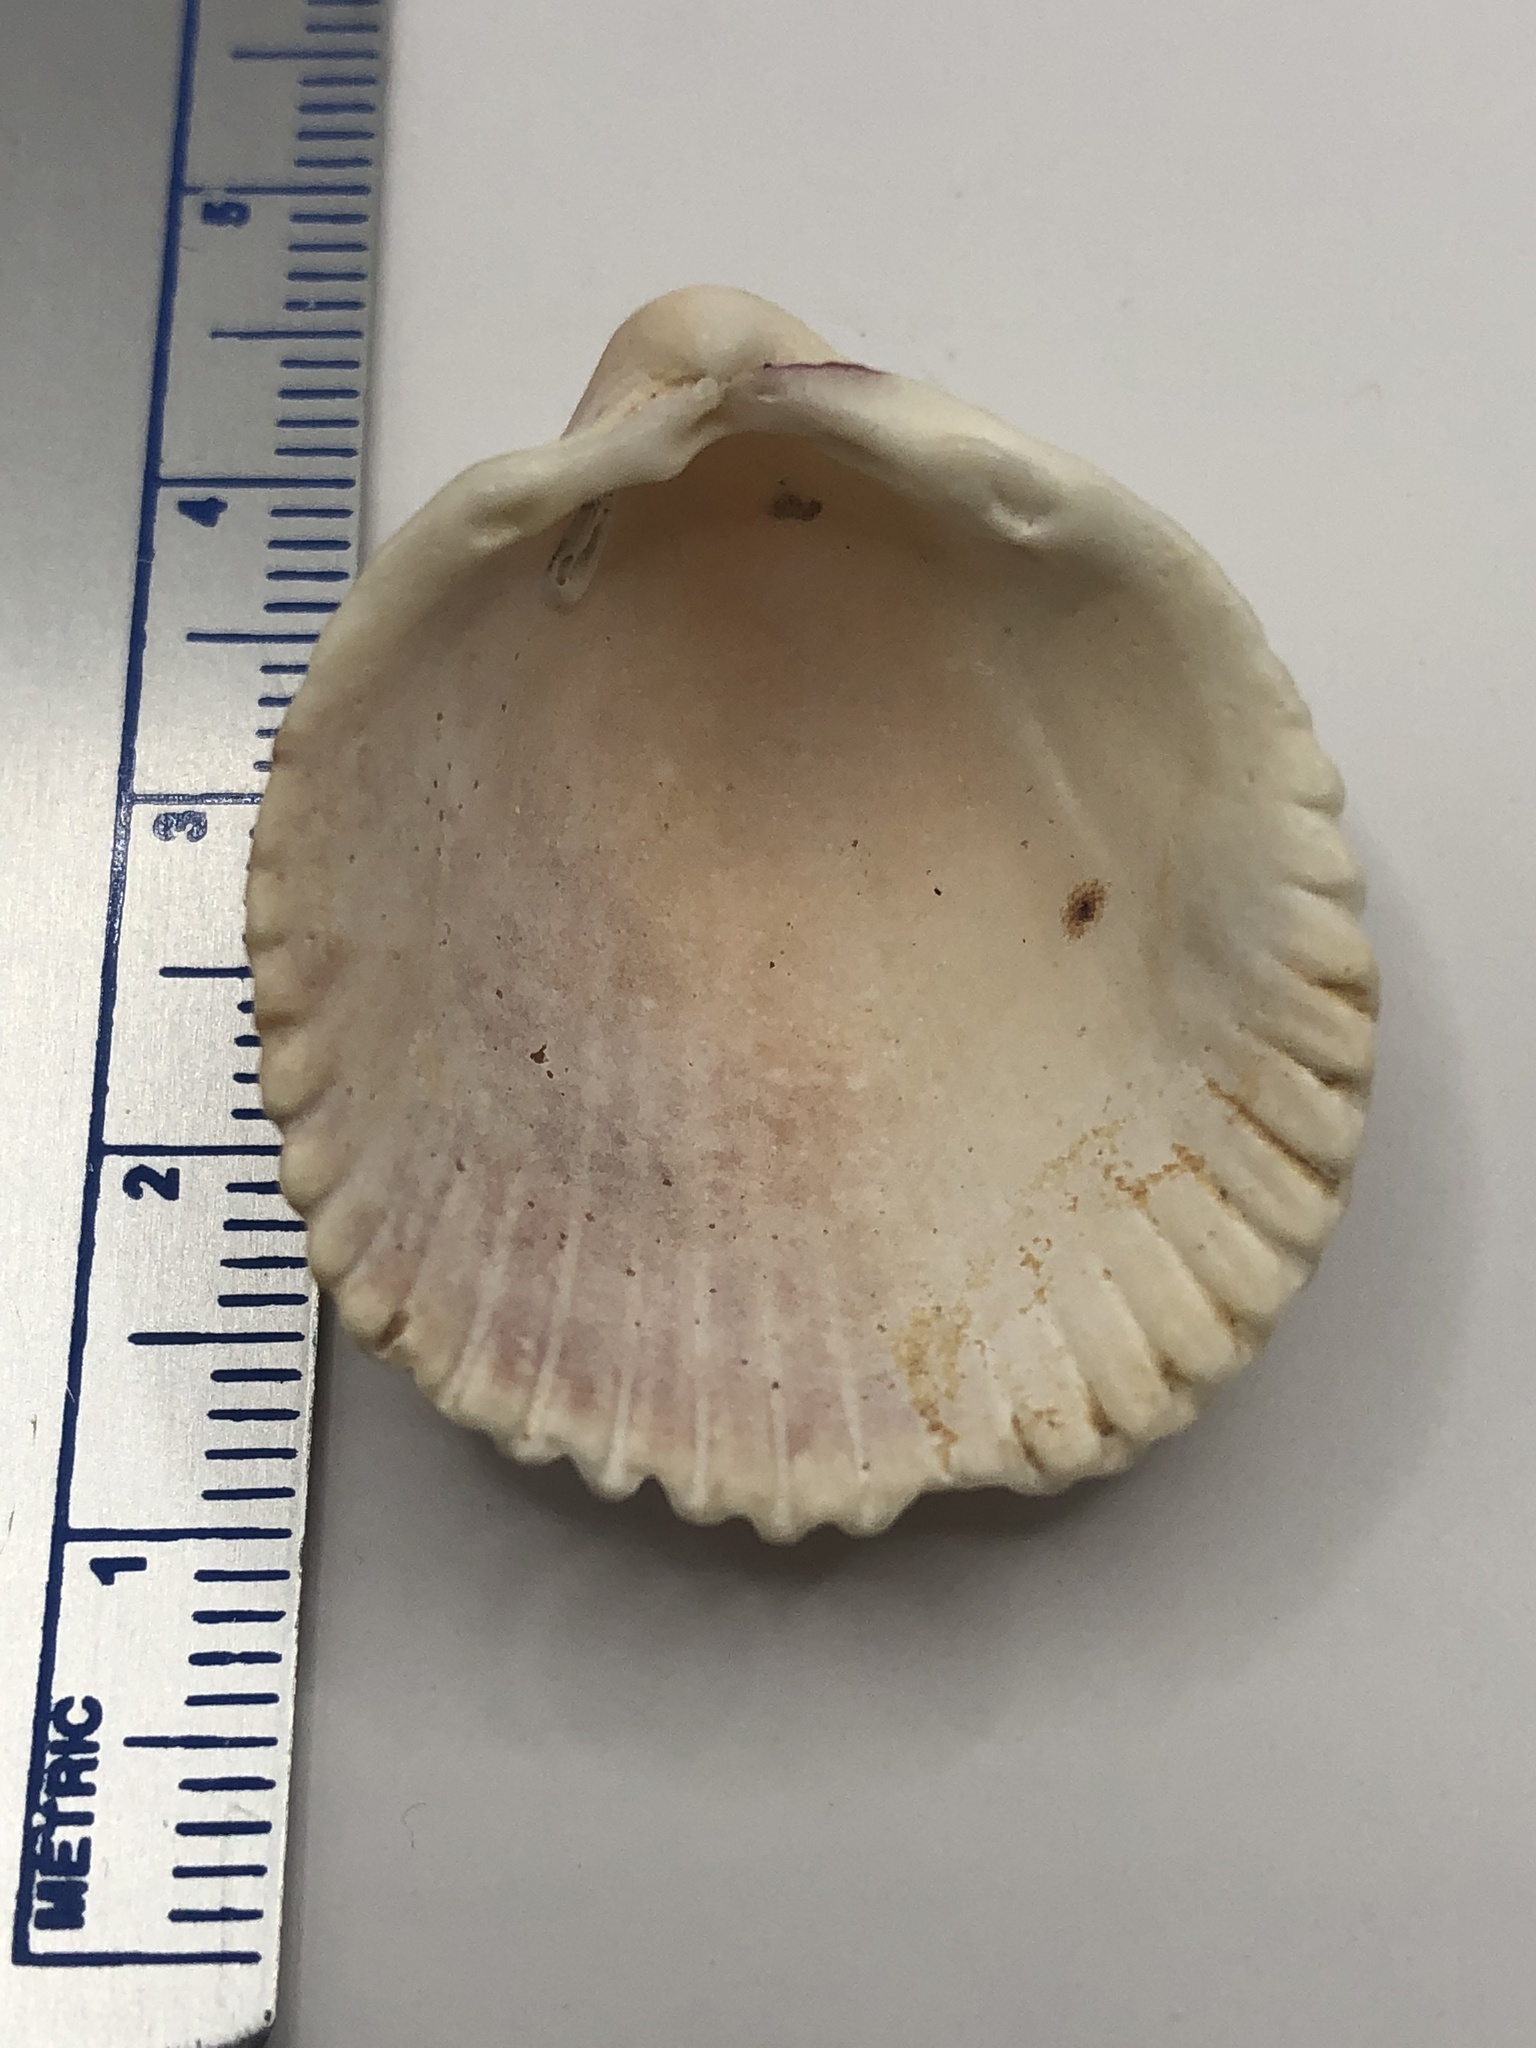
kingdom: Animalia
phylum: Mollusca
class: Bivalvia
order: Cardiida
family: Cardiidae
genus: Trachycardium
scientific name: Trachycardium egmontianum
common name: Florida pricklycockle
